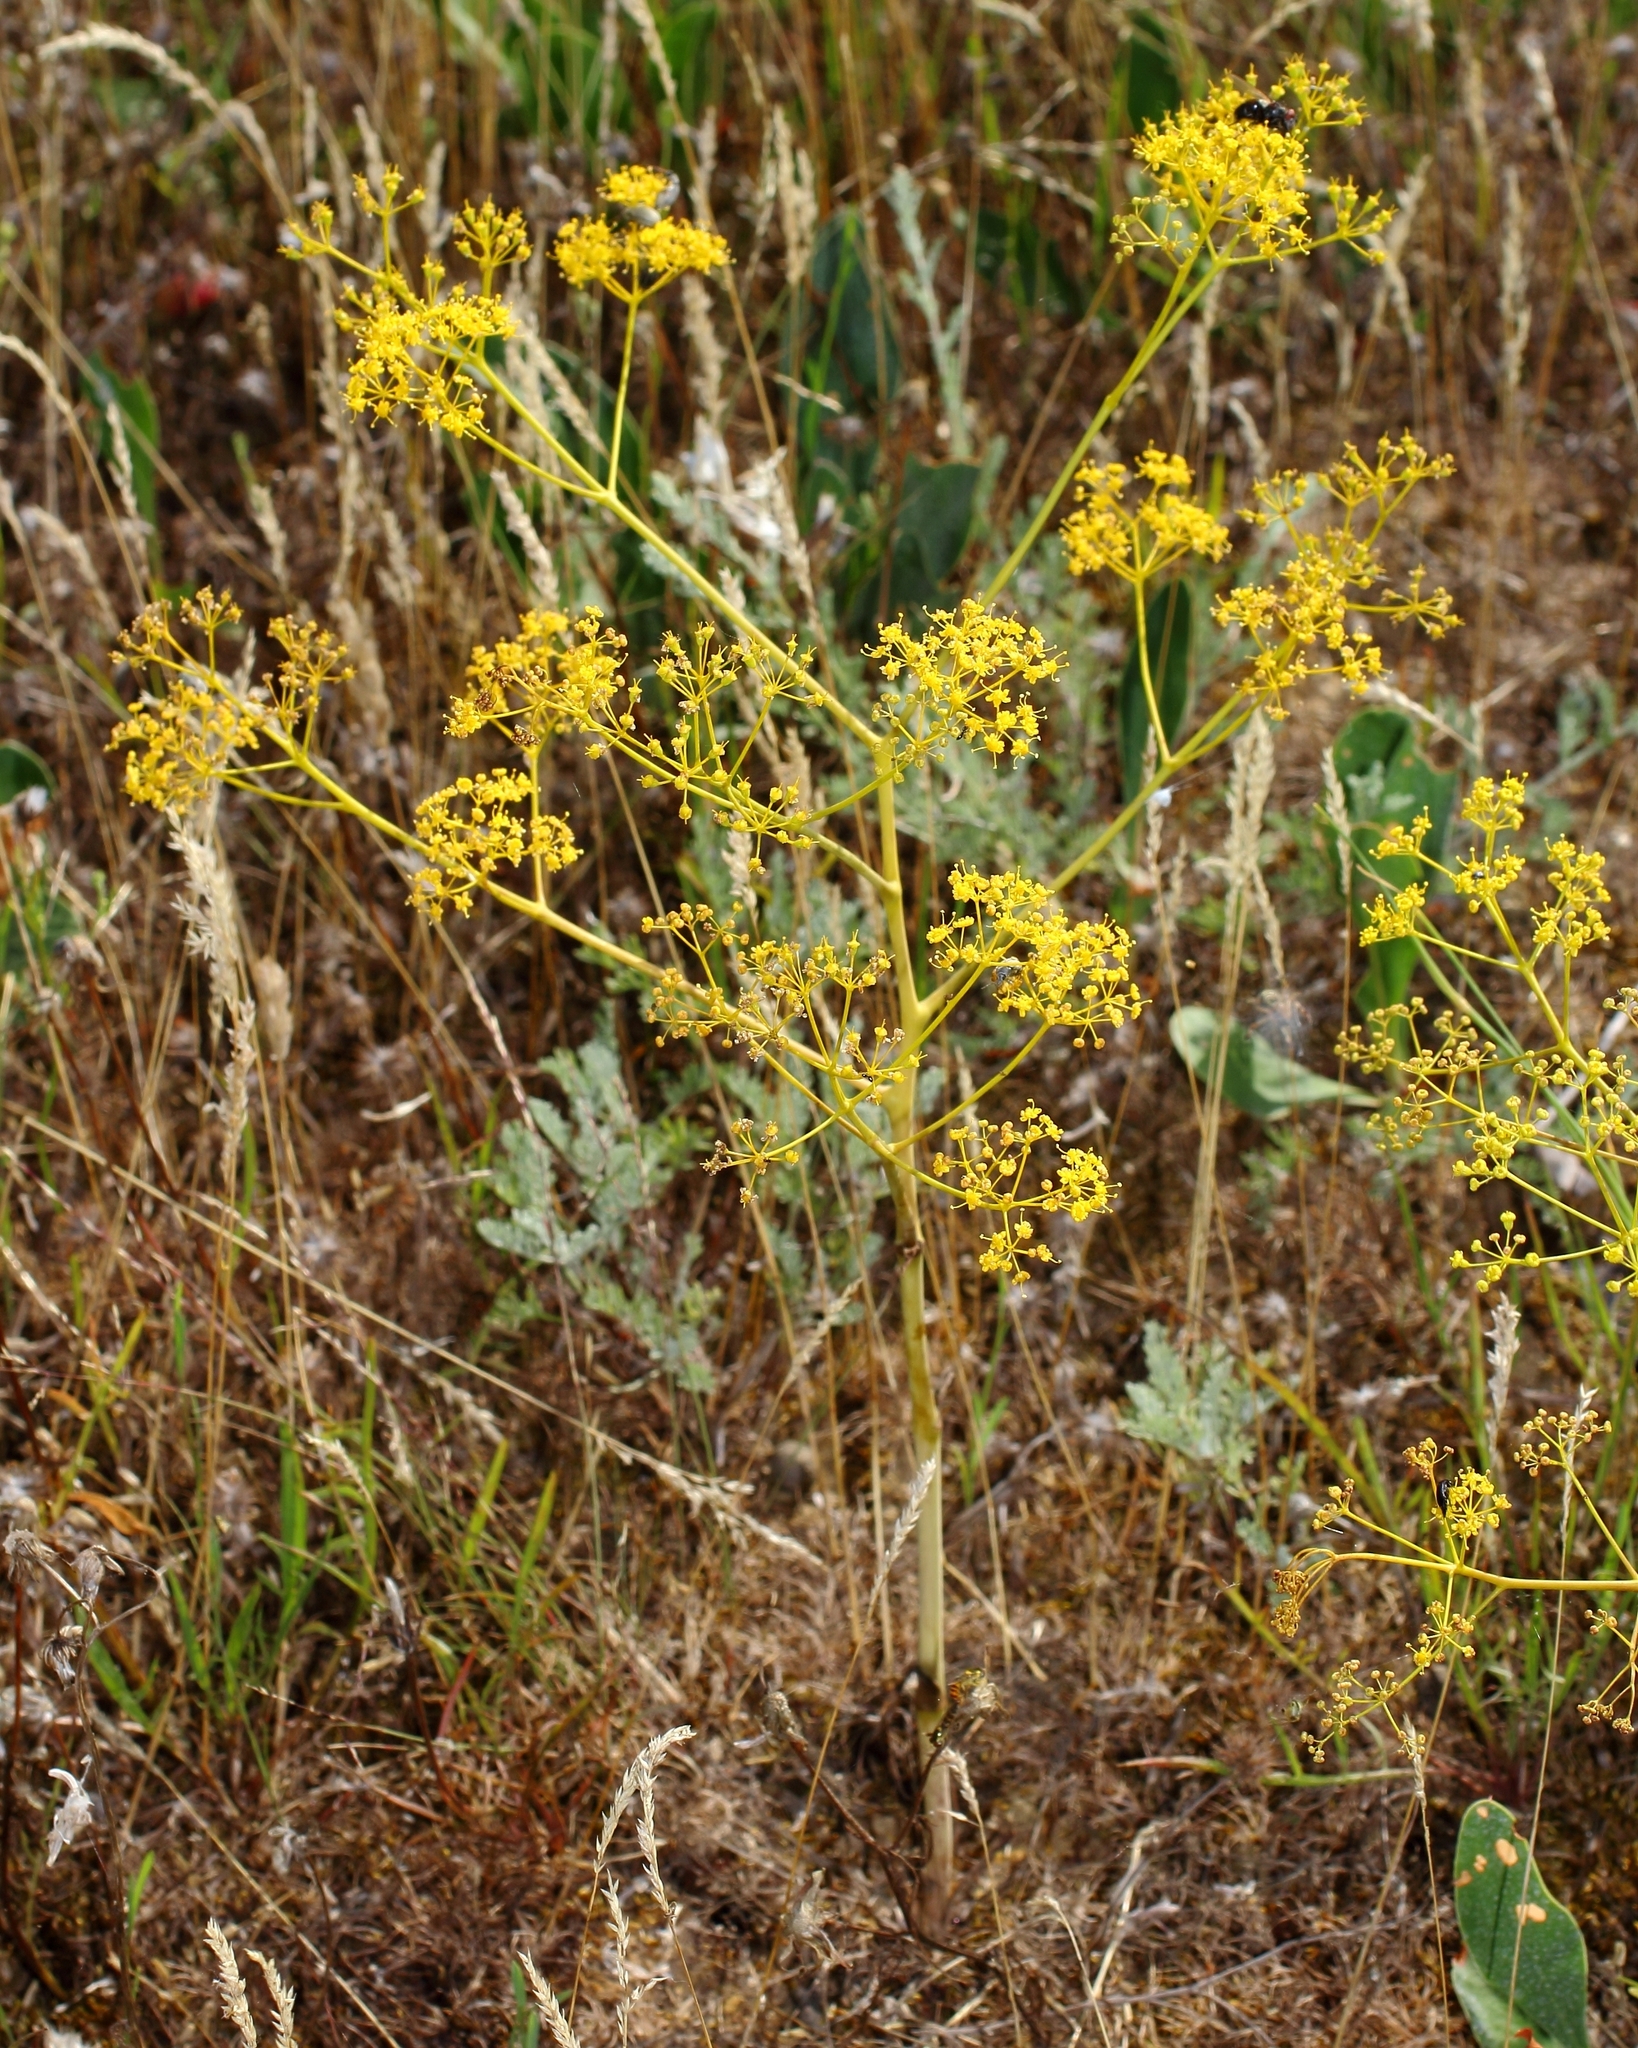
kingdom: Plantae
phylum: Tracheophyta
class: Magnoliopsida
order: Apiales
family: Apiaceae
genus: Ferula
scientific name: Ferula caspica
